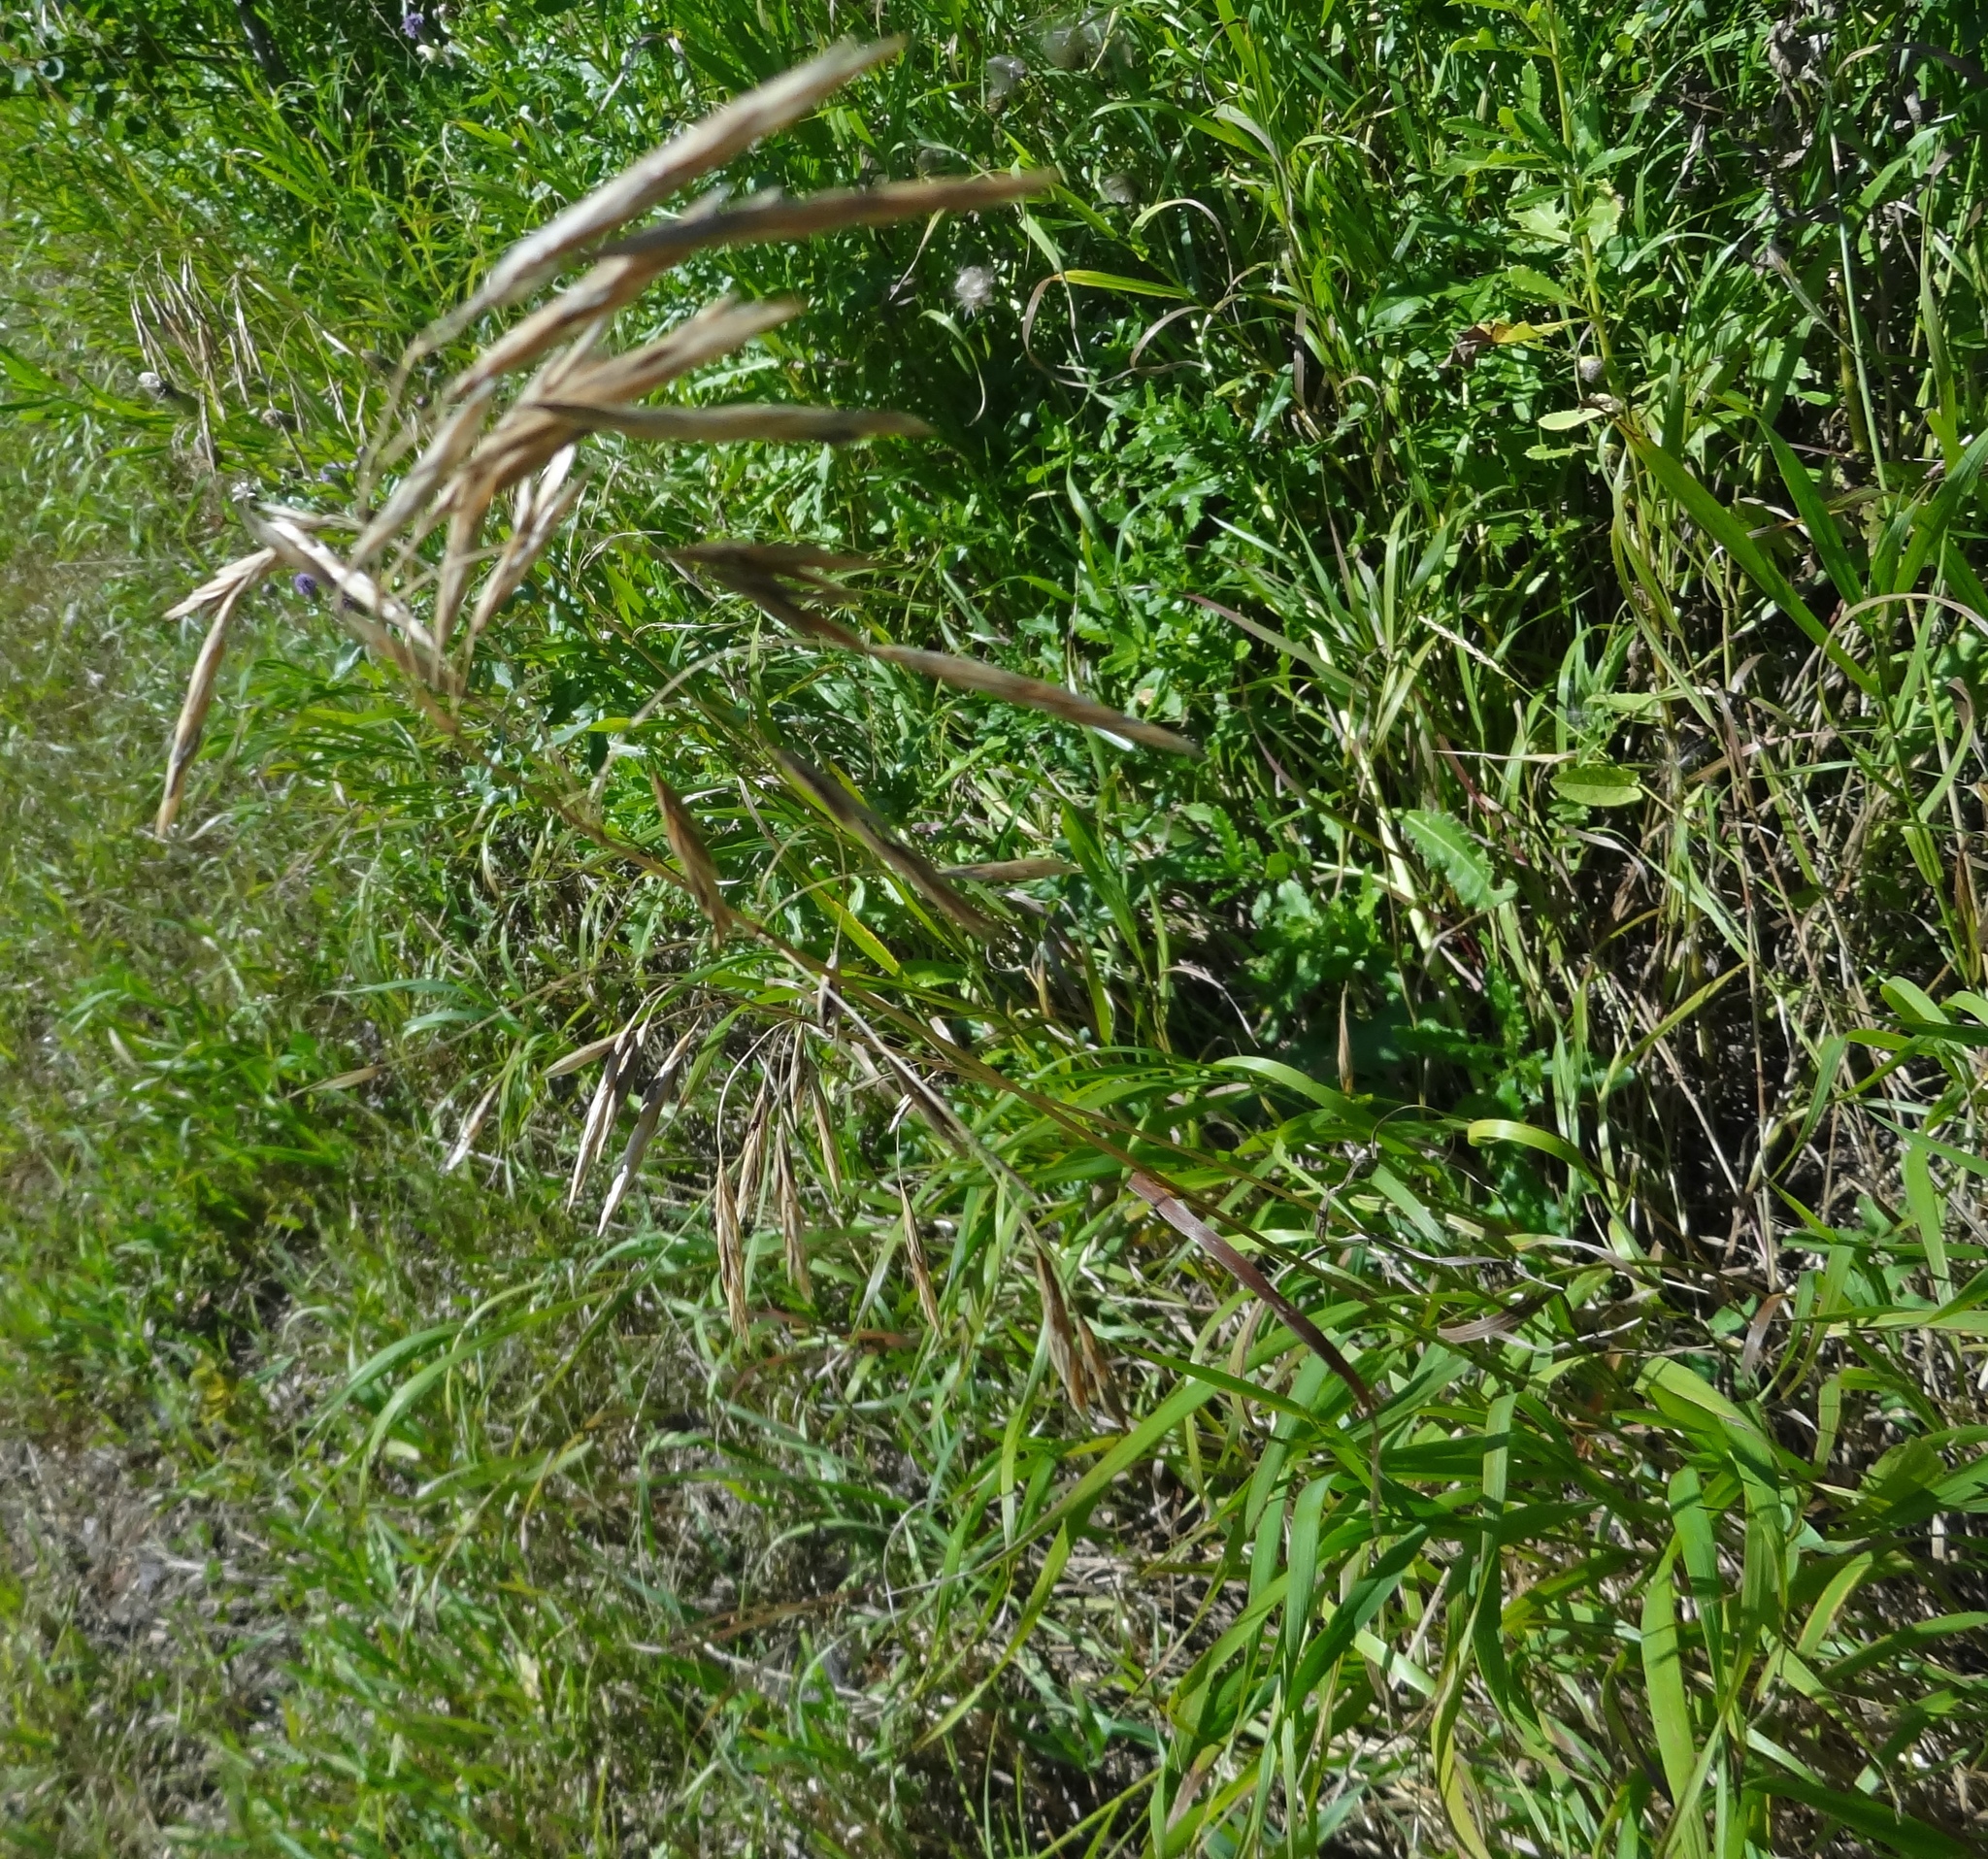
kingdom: Plantae
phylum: Tracheophyta
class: Liliopsida
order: Poales
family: Poaceae
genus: Bromus
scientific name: Bromus inermis
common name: Smooth brome
